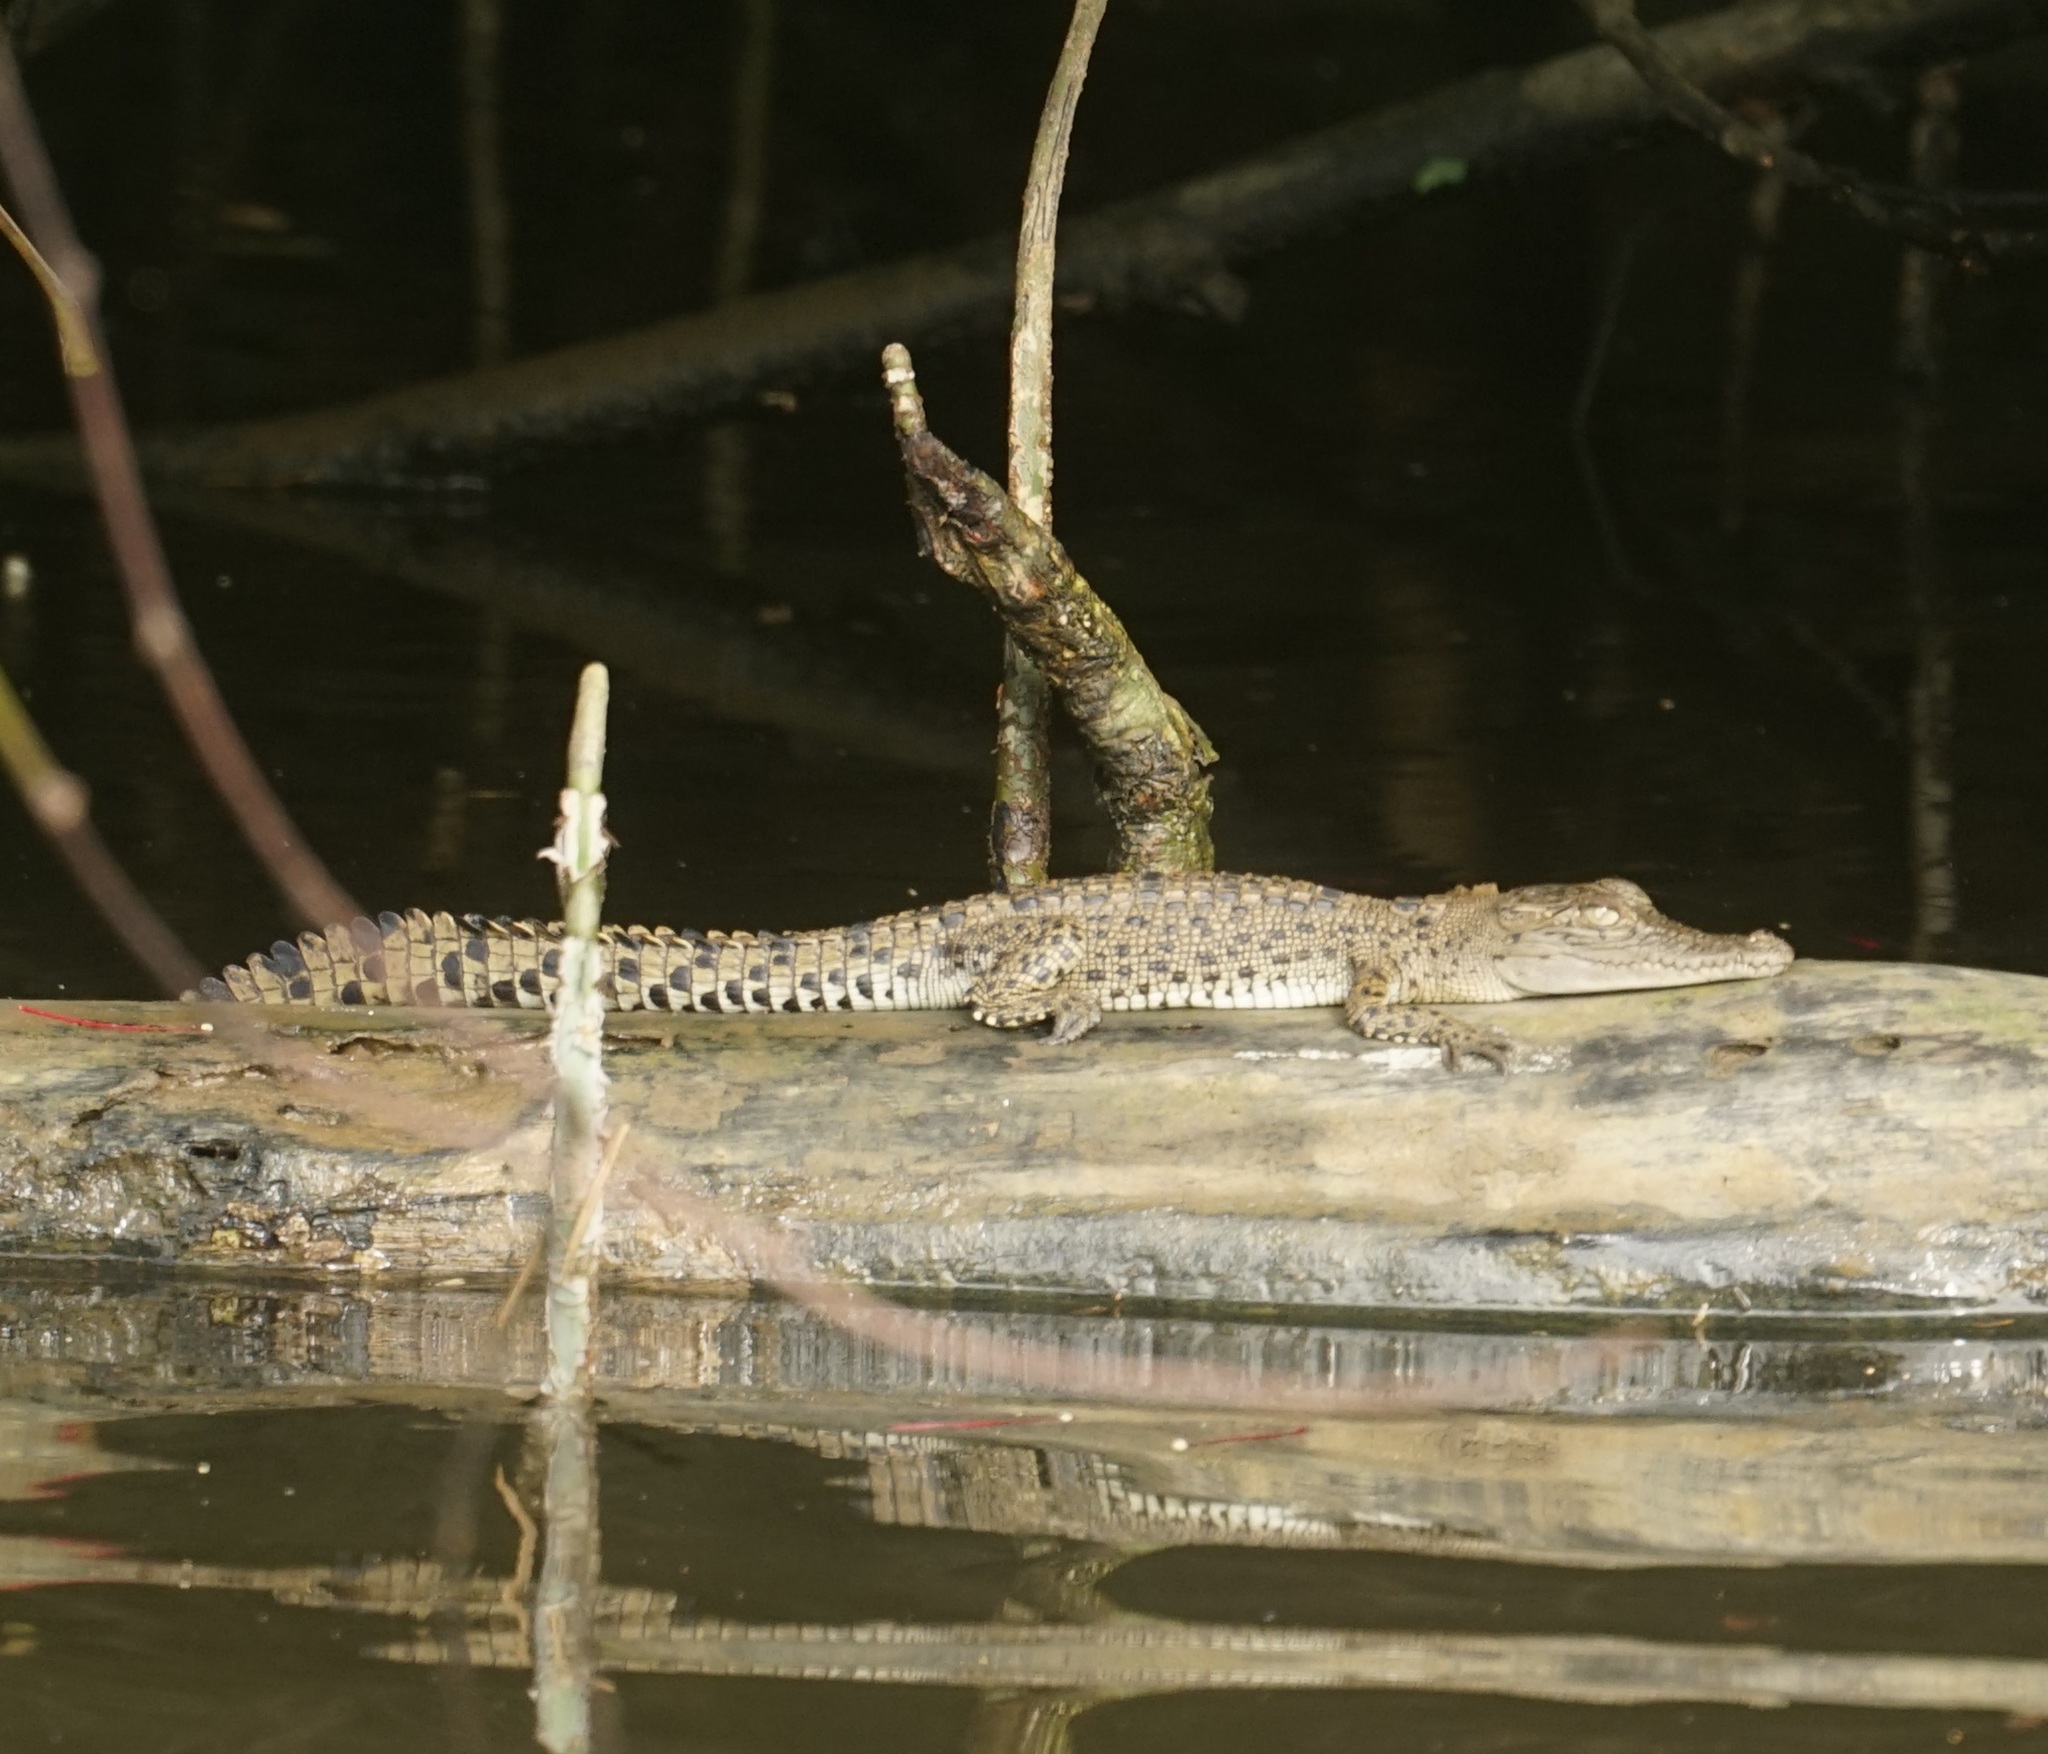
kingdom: Animalia
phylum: Chordata
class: Crocodylia
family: Crocodylidae
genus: Crocodylus
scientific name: Crocodylus porosus
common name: Saltwater crocodile
